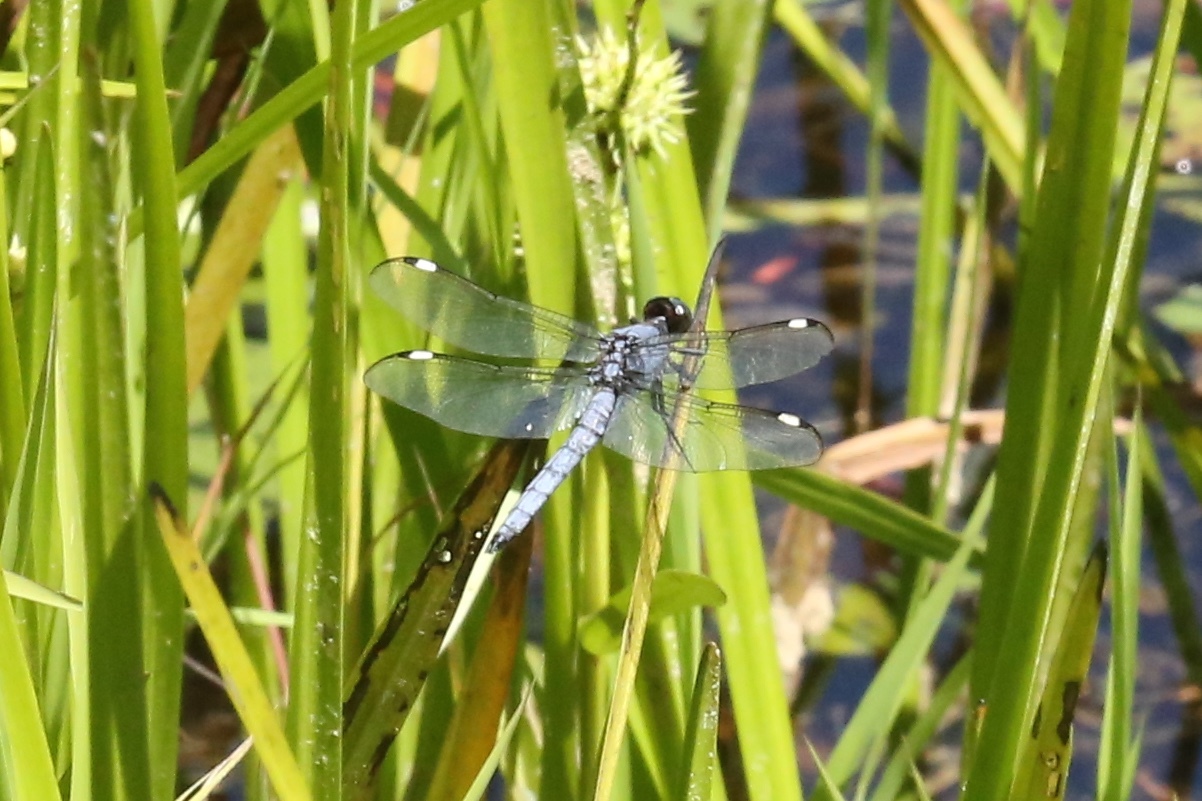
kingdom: Animalia
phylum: Arthropoda
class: Insecta
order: Odonata
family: Libellulidae
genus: Libellula
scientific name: Libellula cyanea
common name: Spangled skimmer
